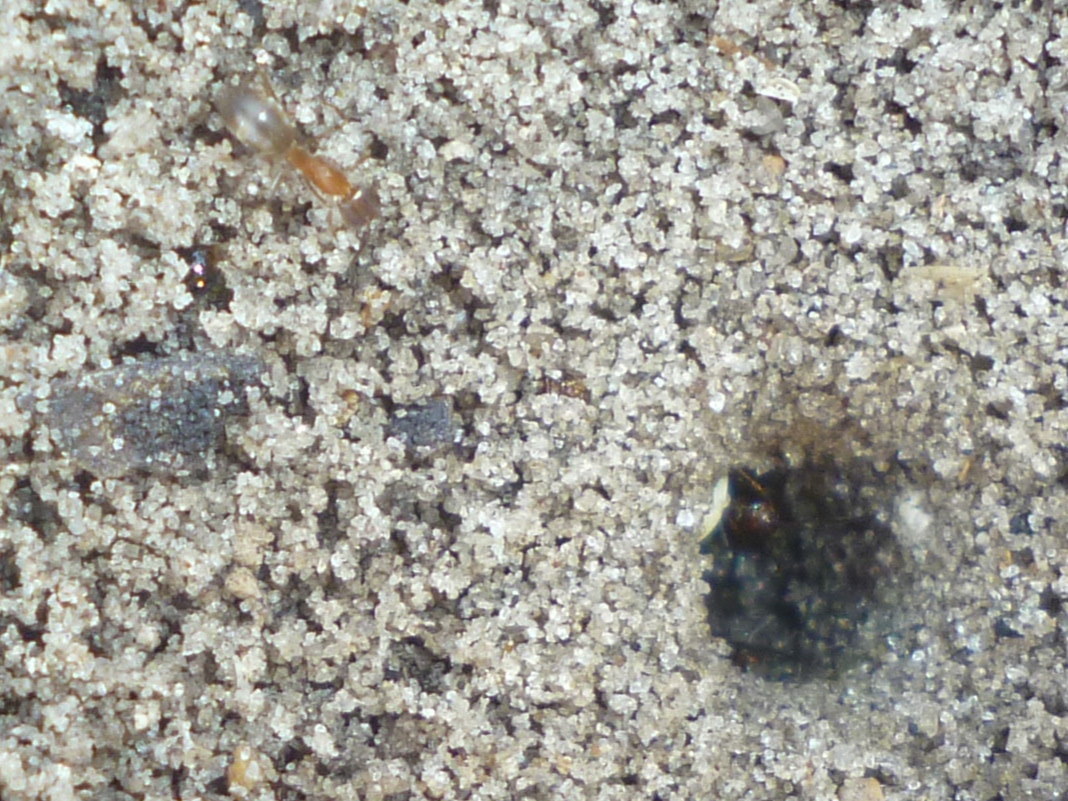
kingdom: Animalia
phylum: Arthropoda
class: Insecta
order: Hymenoptera
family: Formicidae
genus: Dorymyrmex
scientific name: Dorymyrmex bureni
